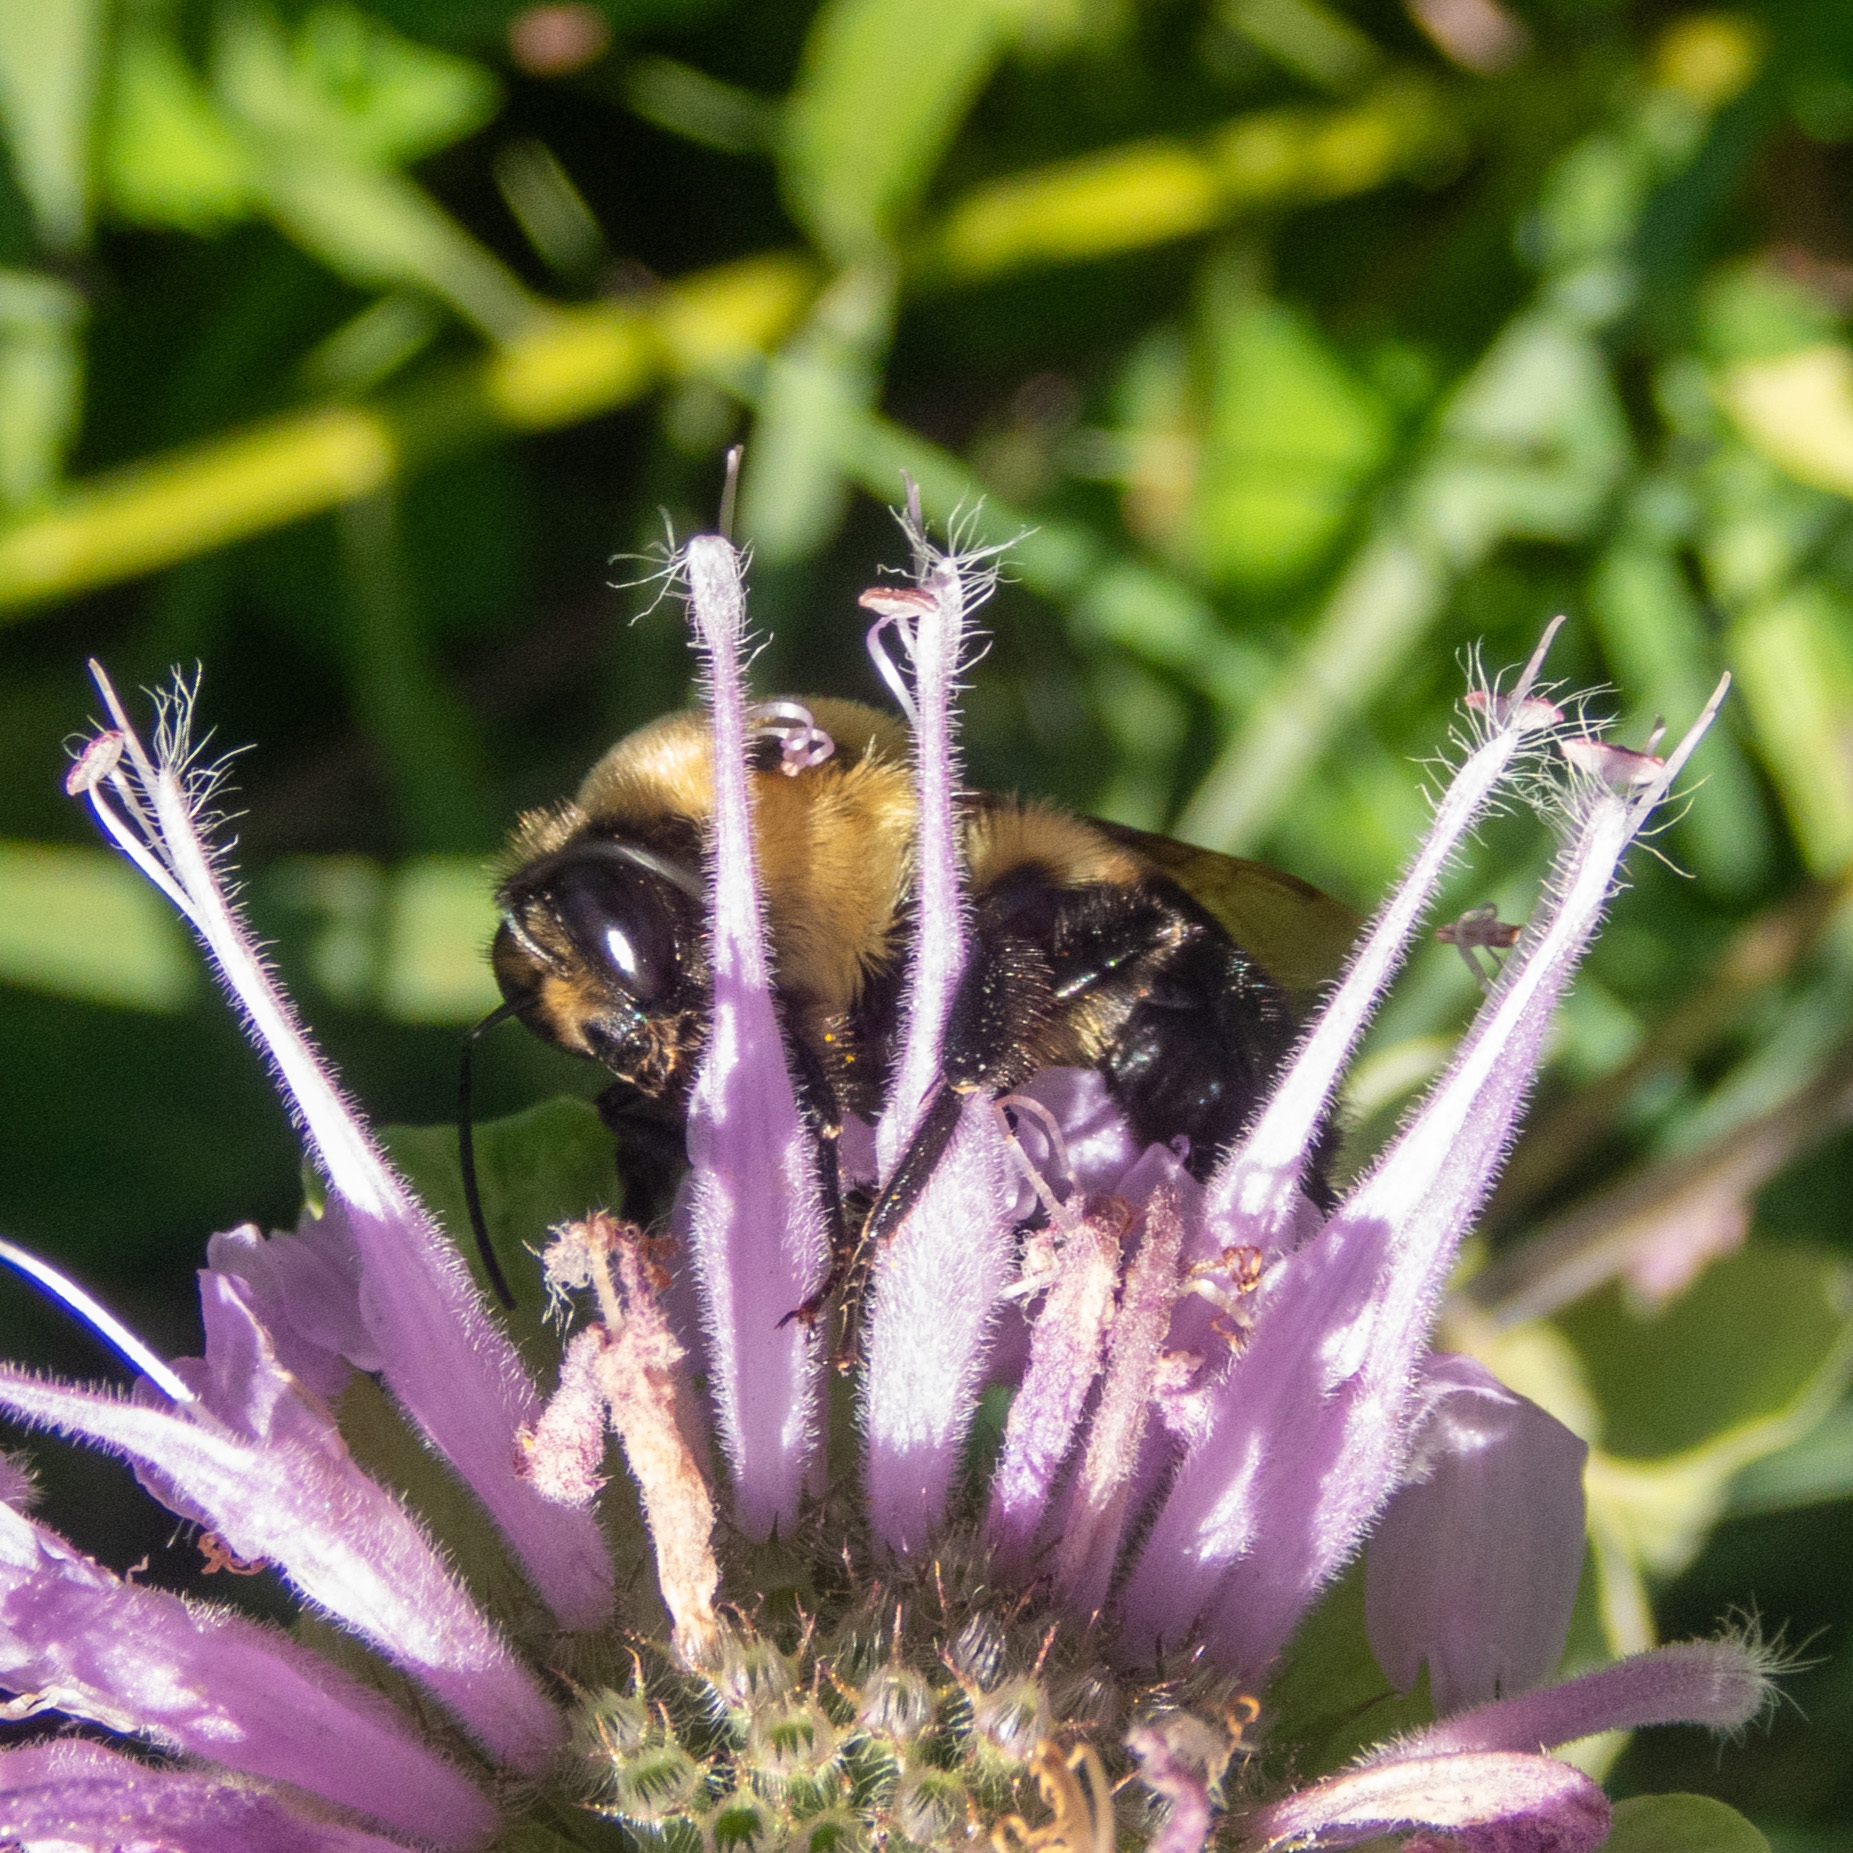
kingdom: Animalia
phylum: Arthropoda
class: Insecta
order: Hymenoptera
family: Apidae
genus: Bombus
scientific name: Bombus griseocollis
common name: Brown-belted bumble bee
